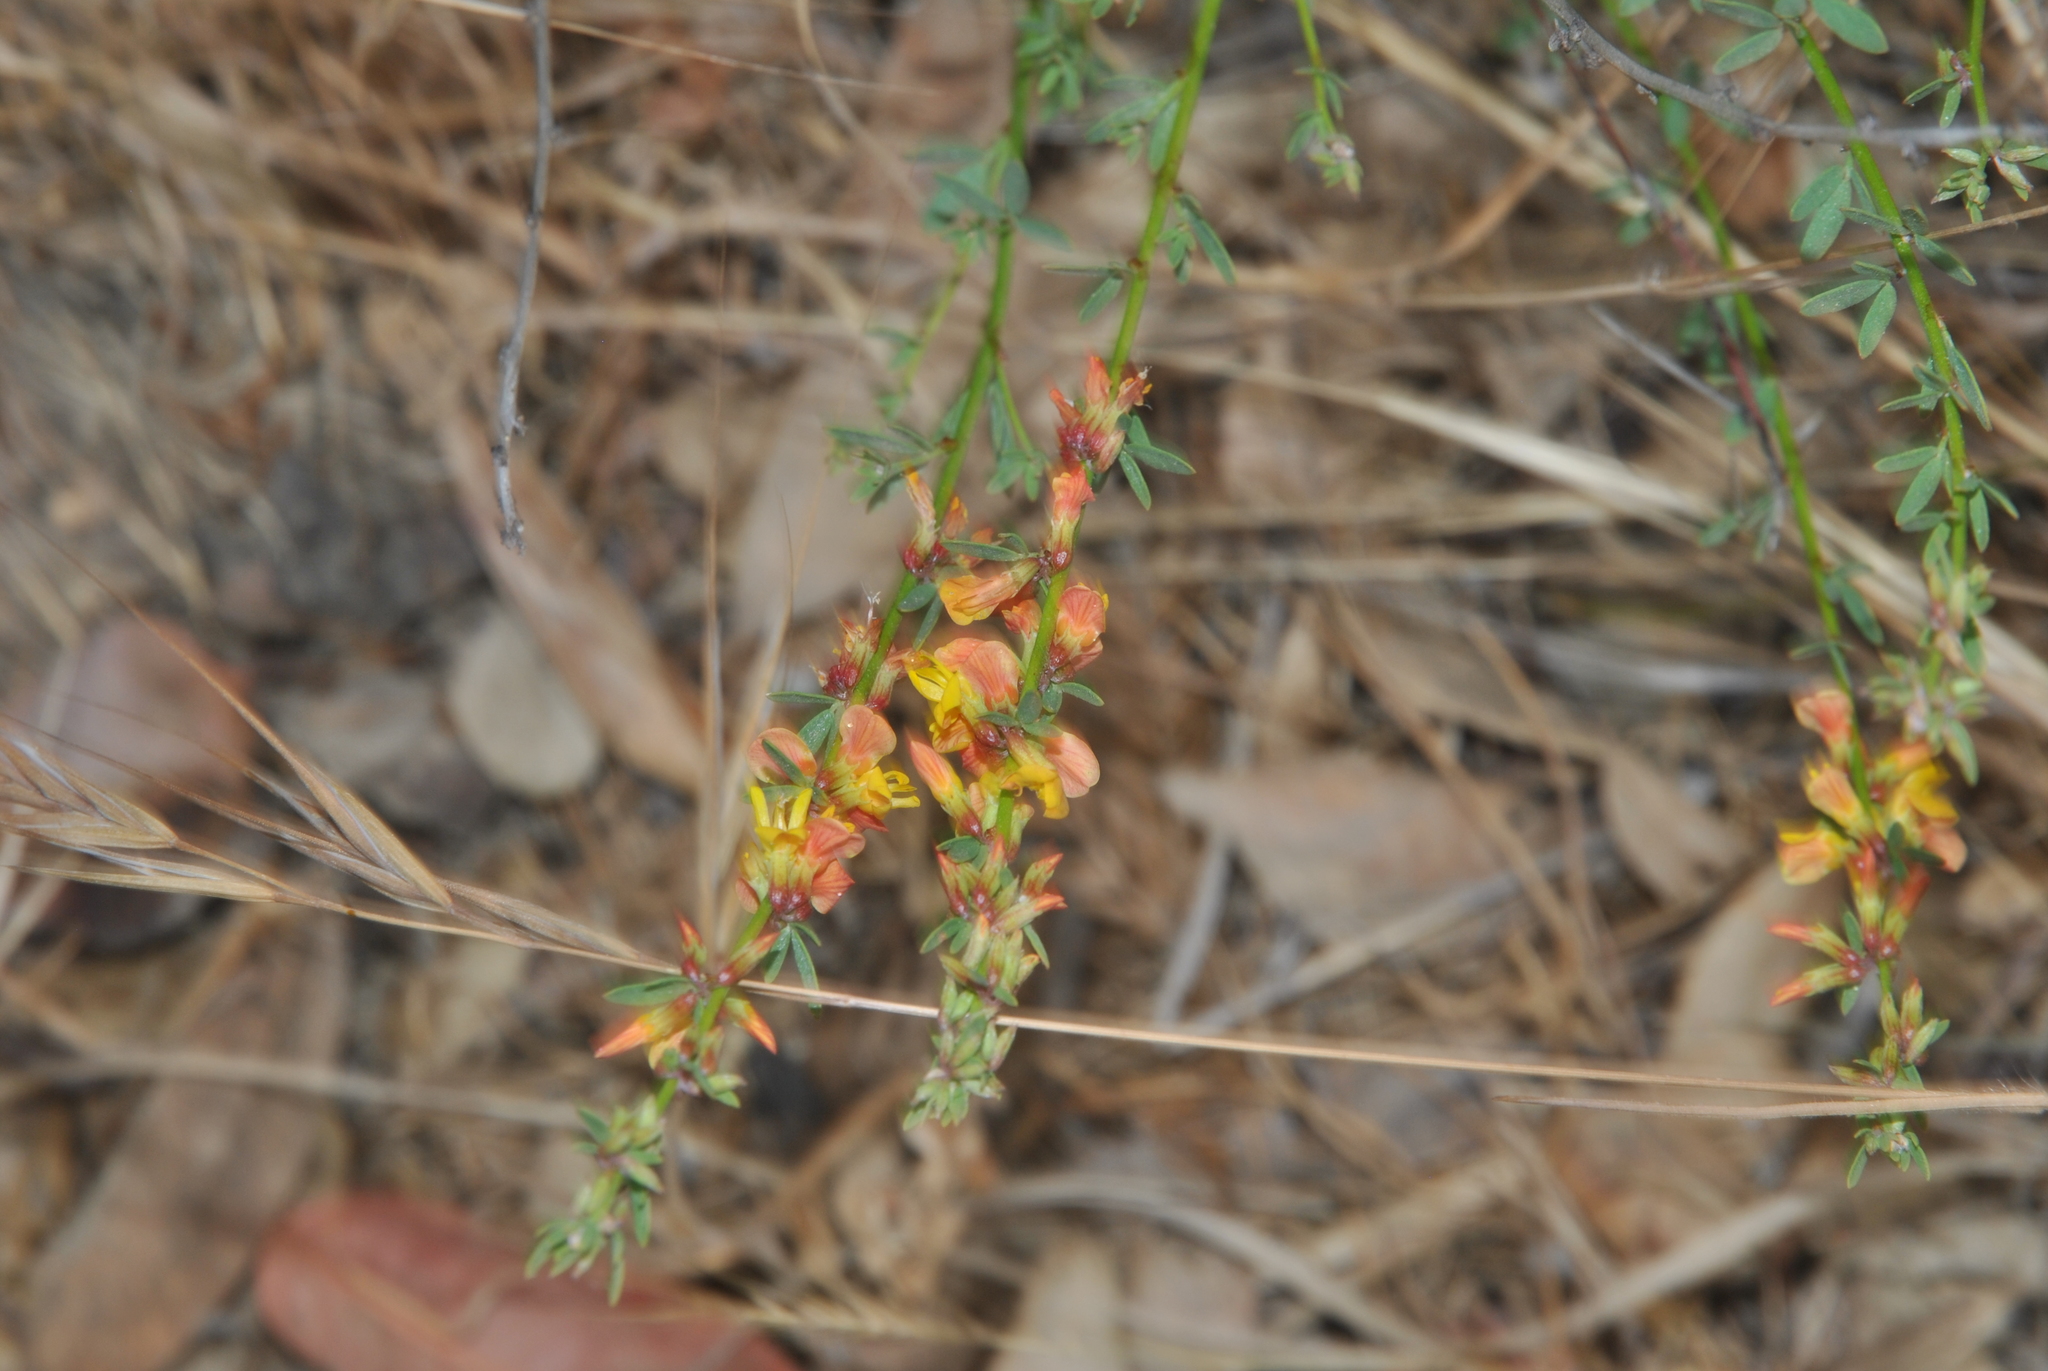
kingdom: Plantae
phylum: Tracheophyta
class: Magnoliopsida
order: Fabales
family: Fabaceae
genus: Acmispon
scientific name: Acmispon glaber
